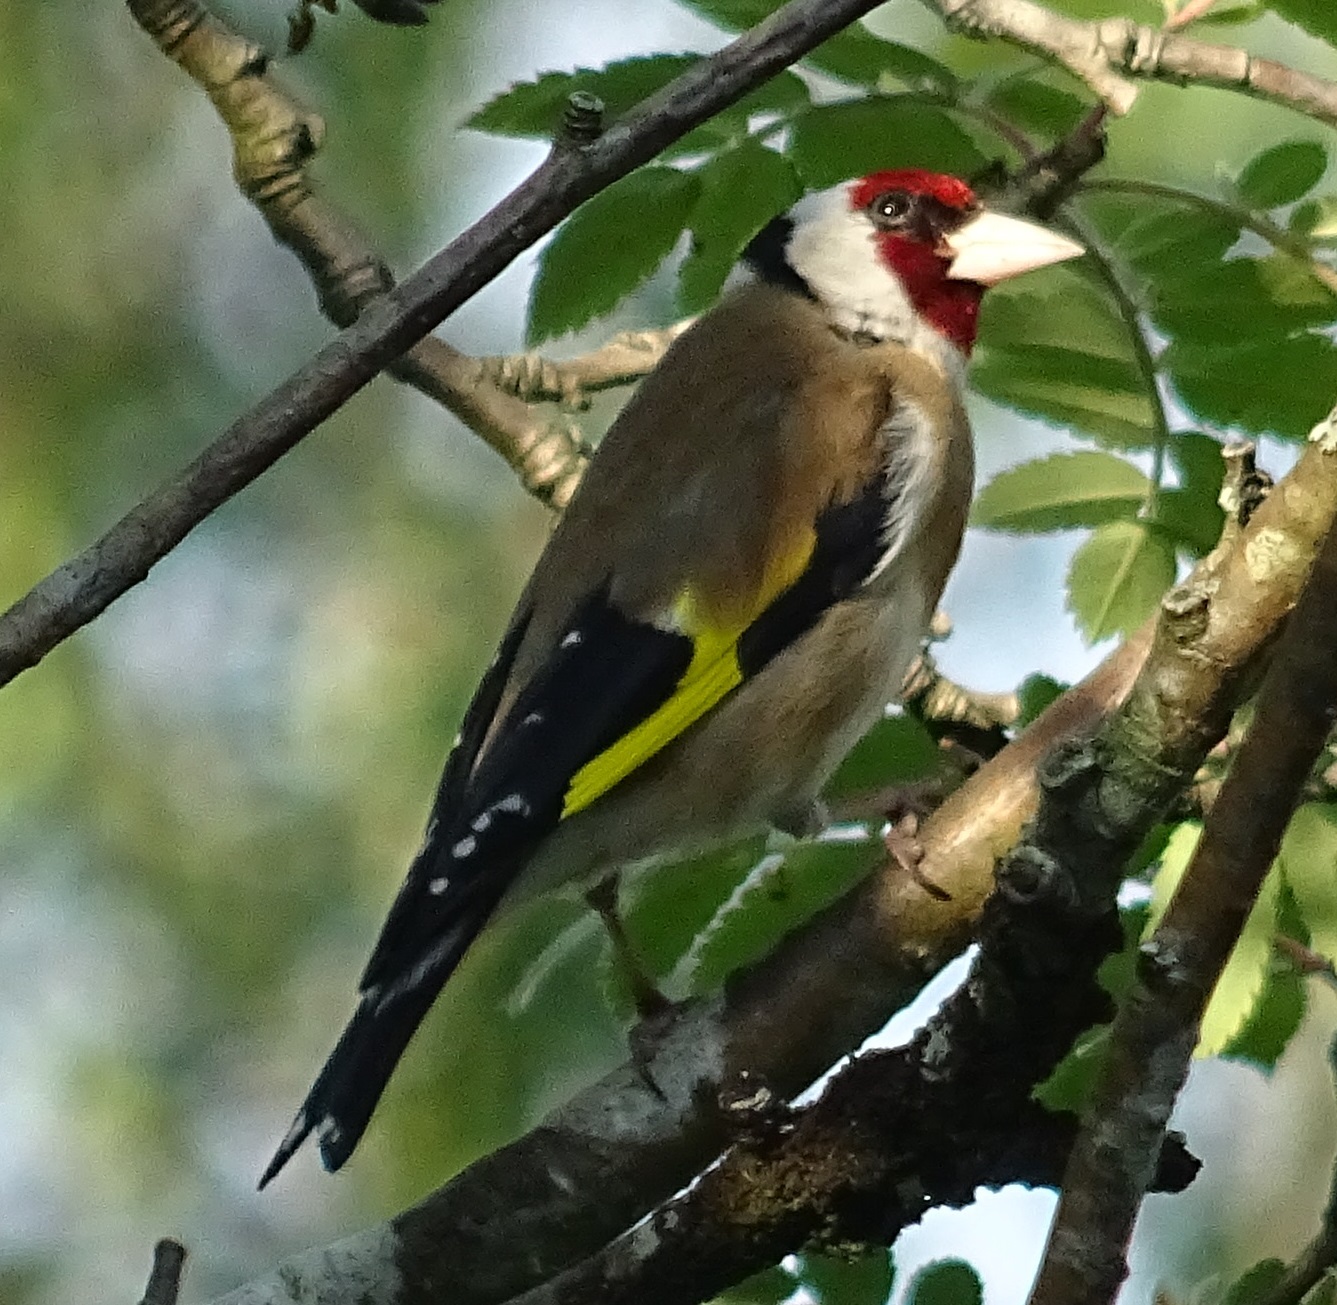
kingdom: Animalia
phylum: Chordata
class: Aves
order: Passeriformes
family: Fringillidae
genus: Carduelis
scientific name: Carduelis carduelis
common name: European goldfinch
